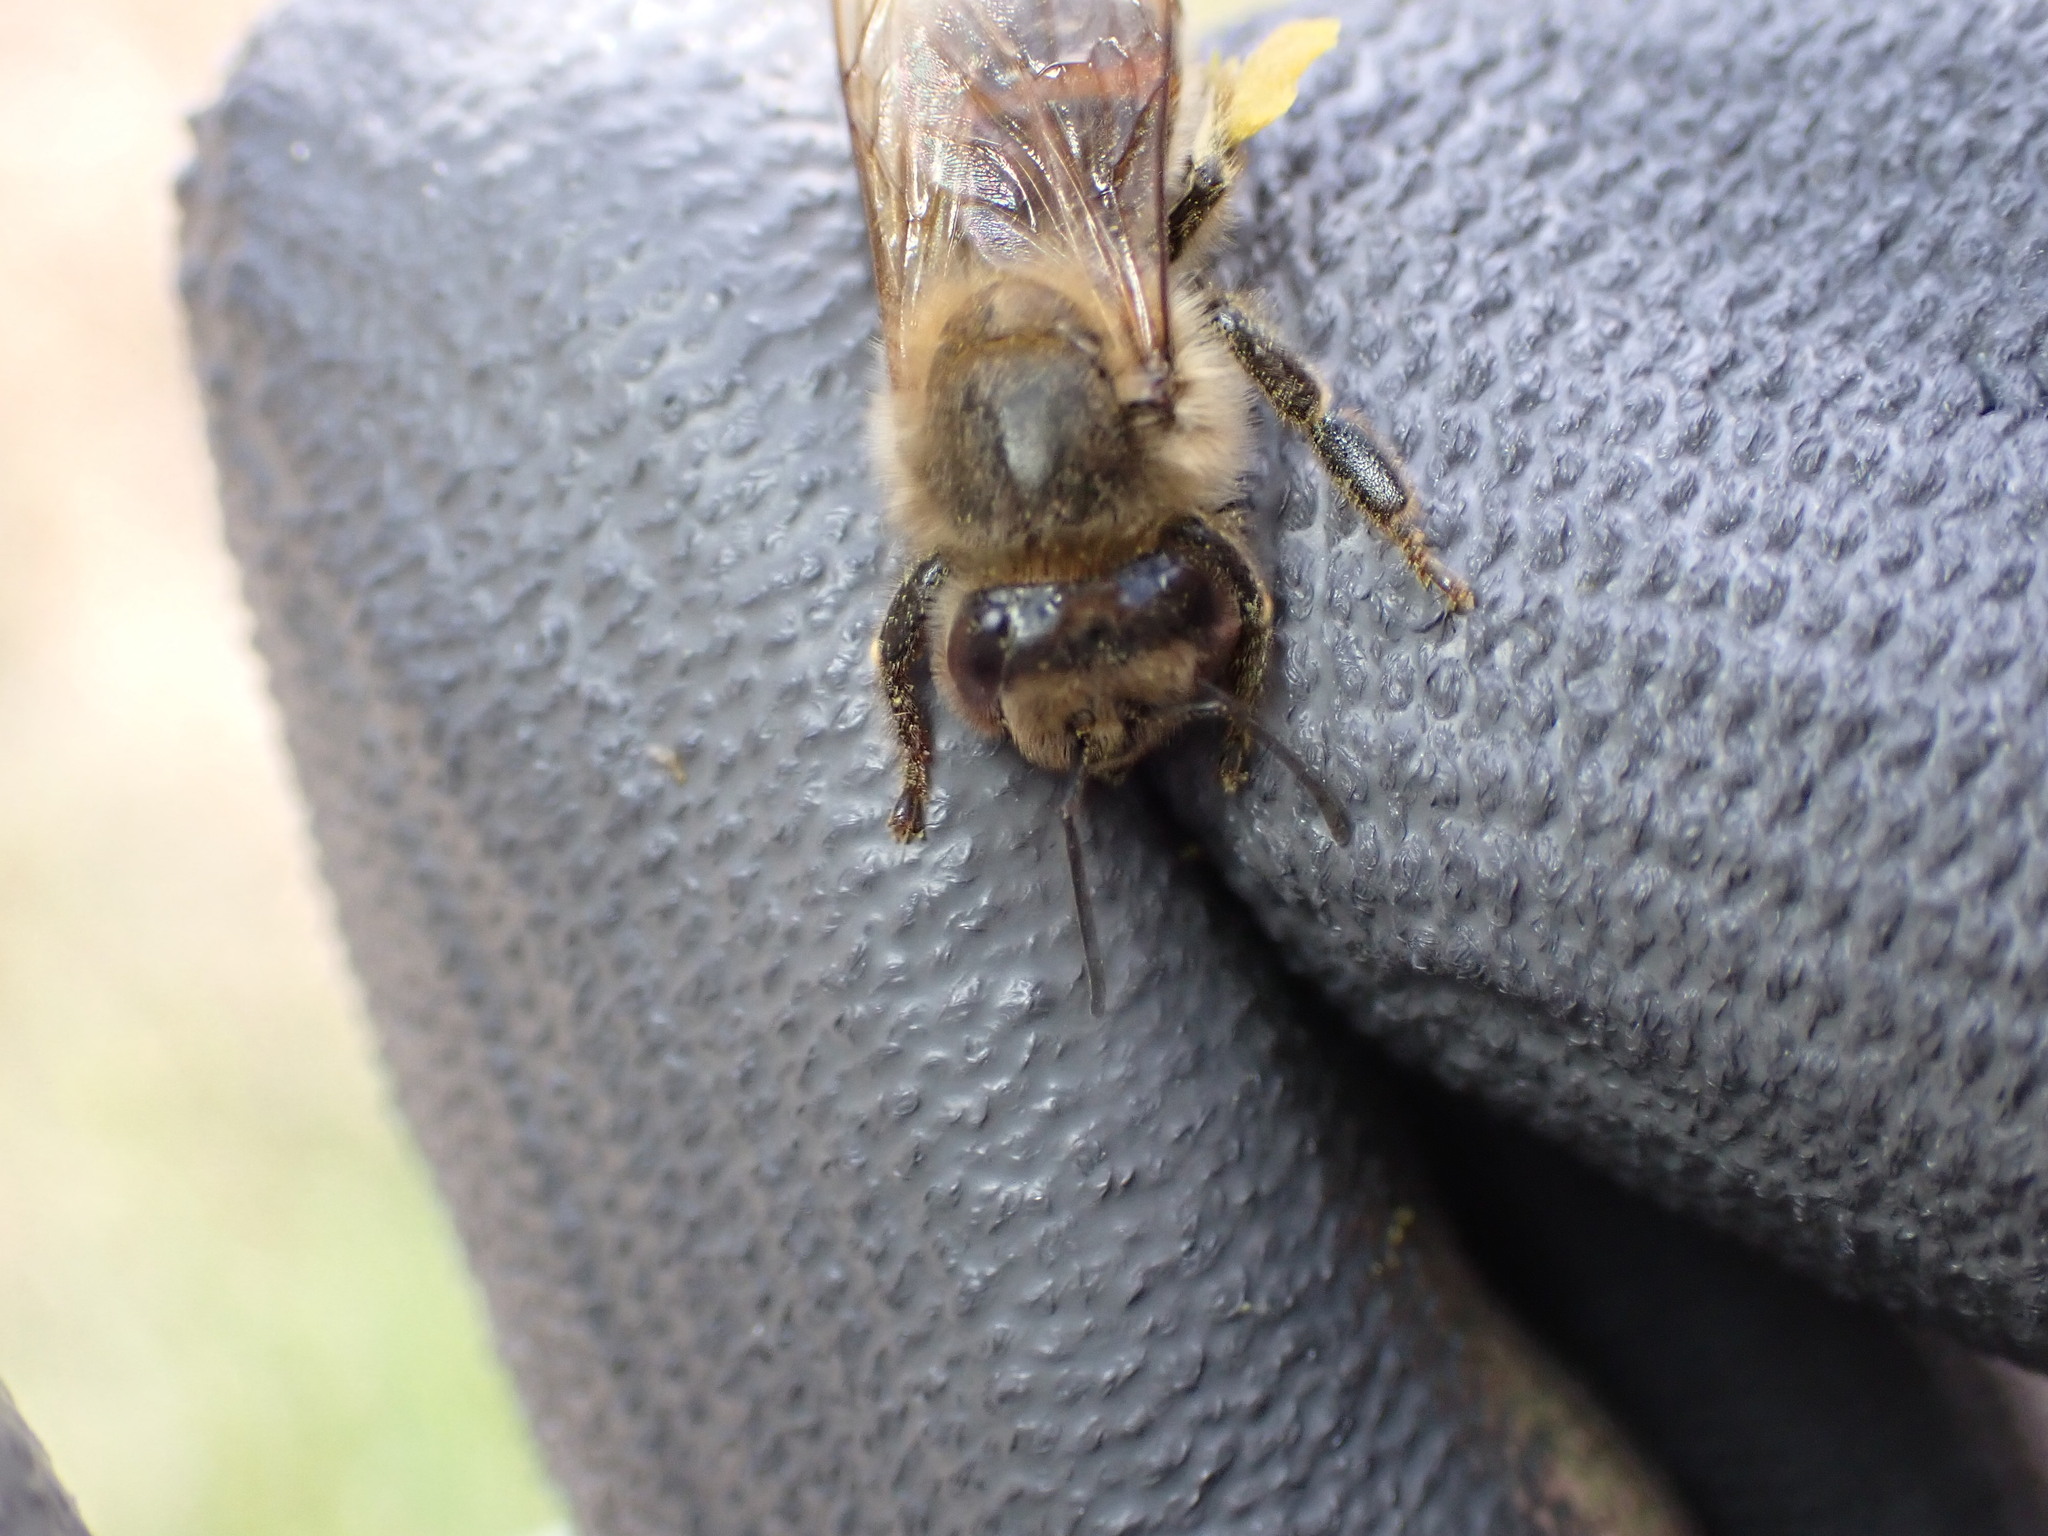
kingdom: Animalia
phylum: Arthropoda
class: Insecta
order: Hymenoptera
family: Apidae
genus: Apis
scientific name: Apis mellifera
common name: Honey bee
